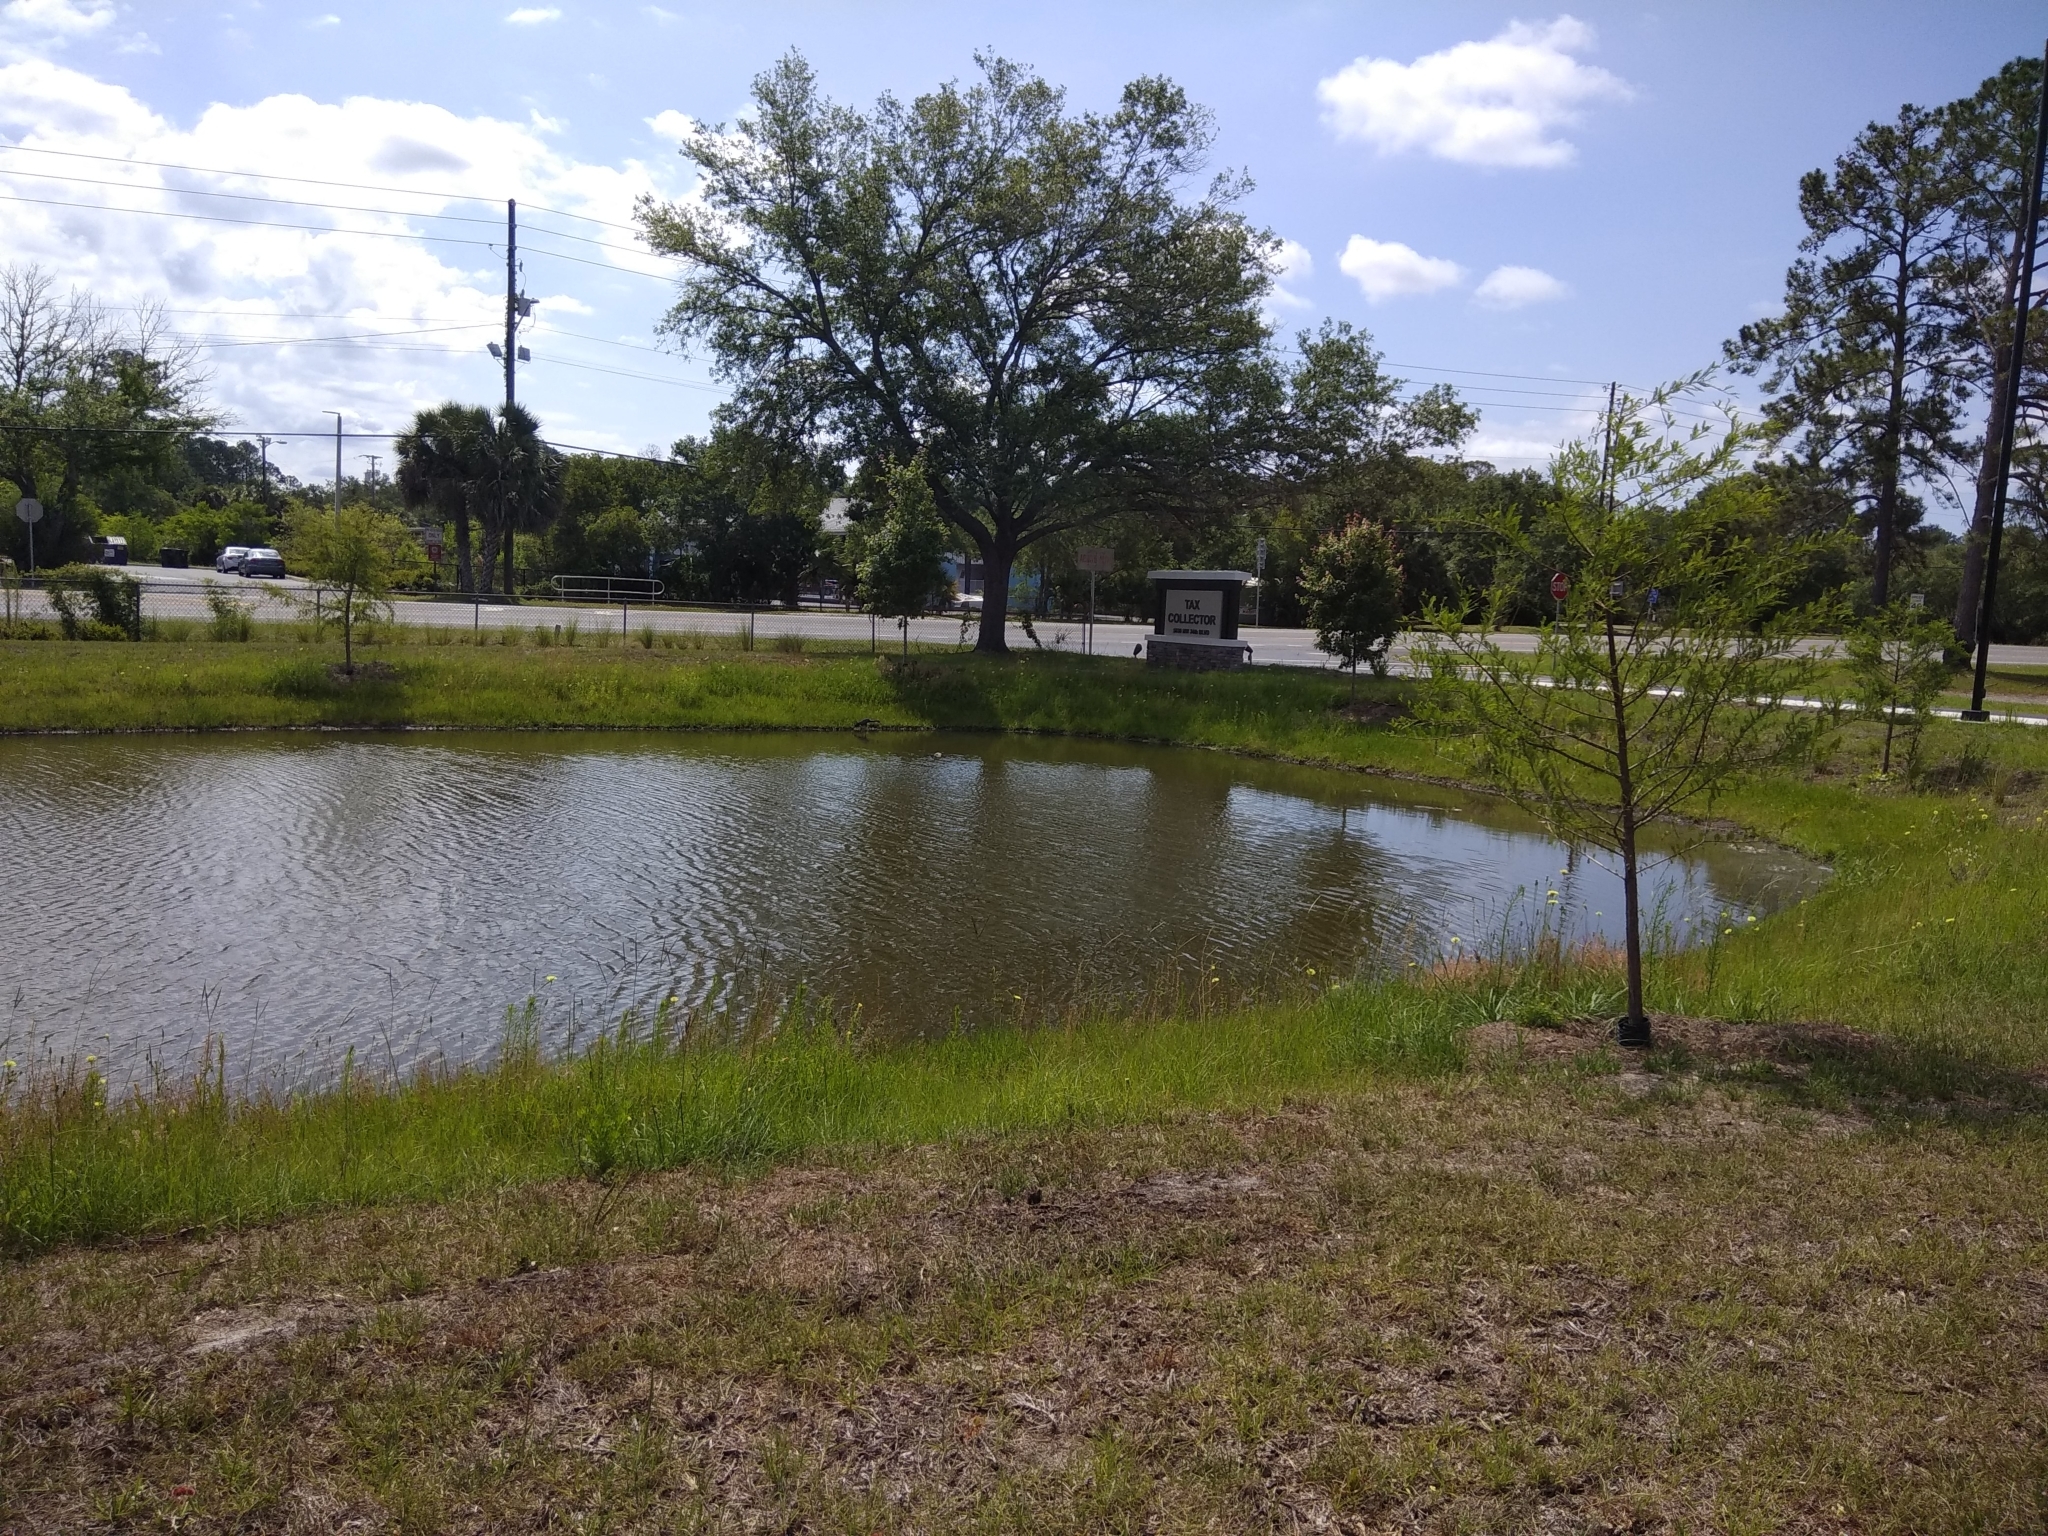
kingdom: Animalia
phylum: Chordata
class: Aves
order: Pelecaniformes
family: Ardeidae
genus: Egretta
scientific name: Egretta caerulea
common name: Little blue heron
